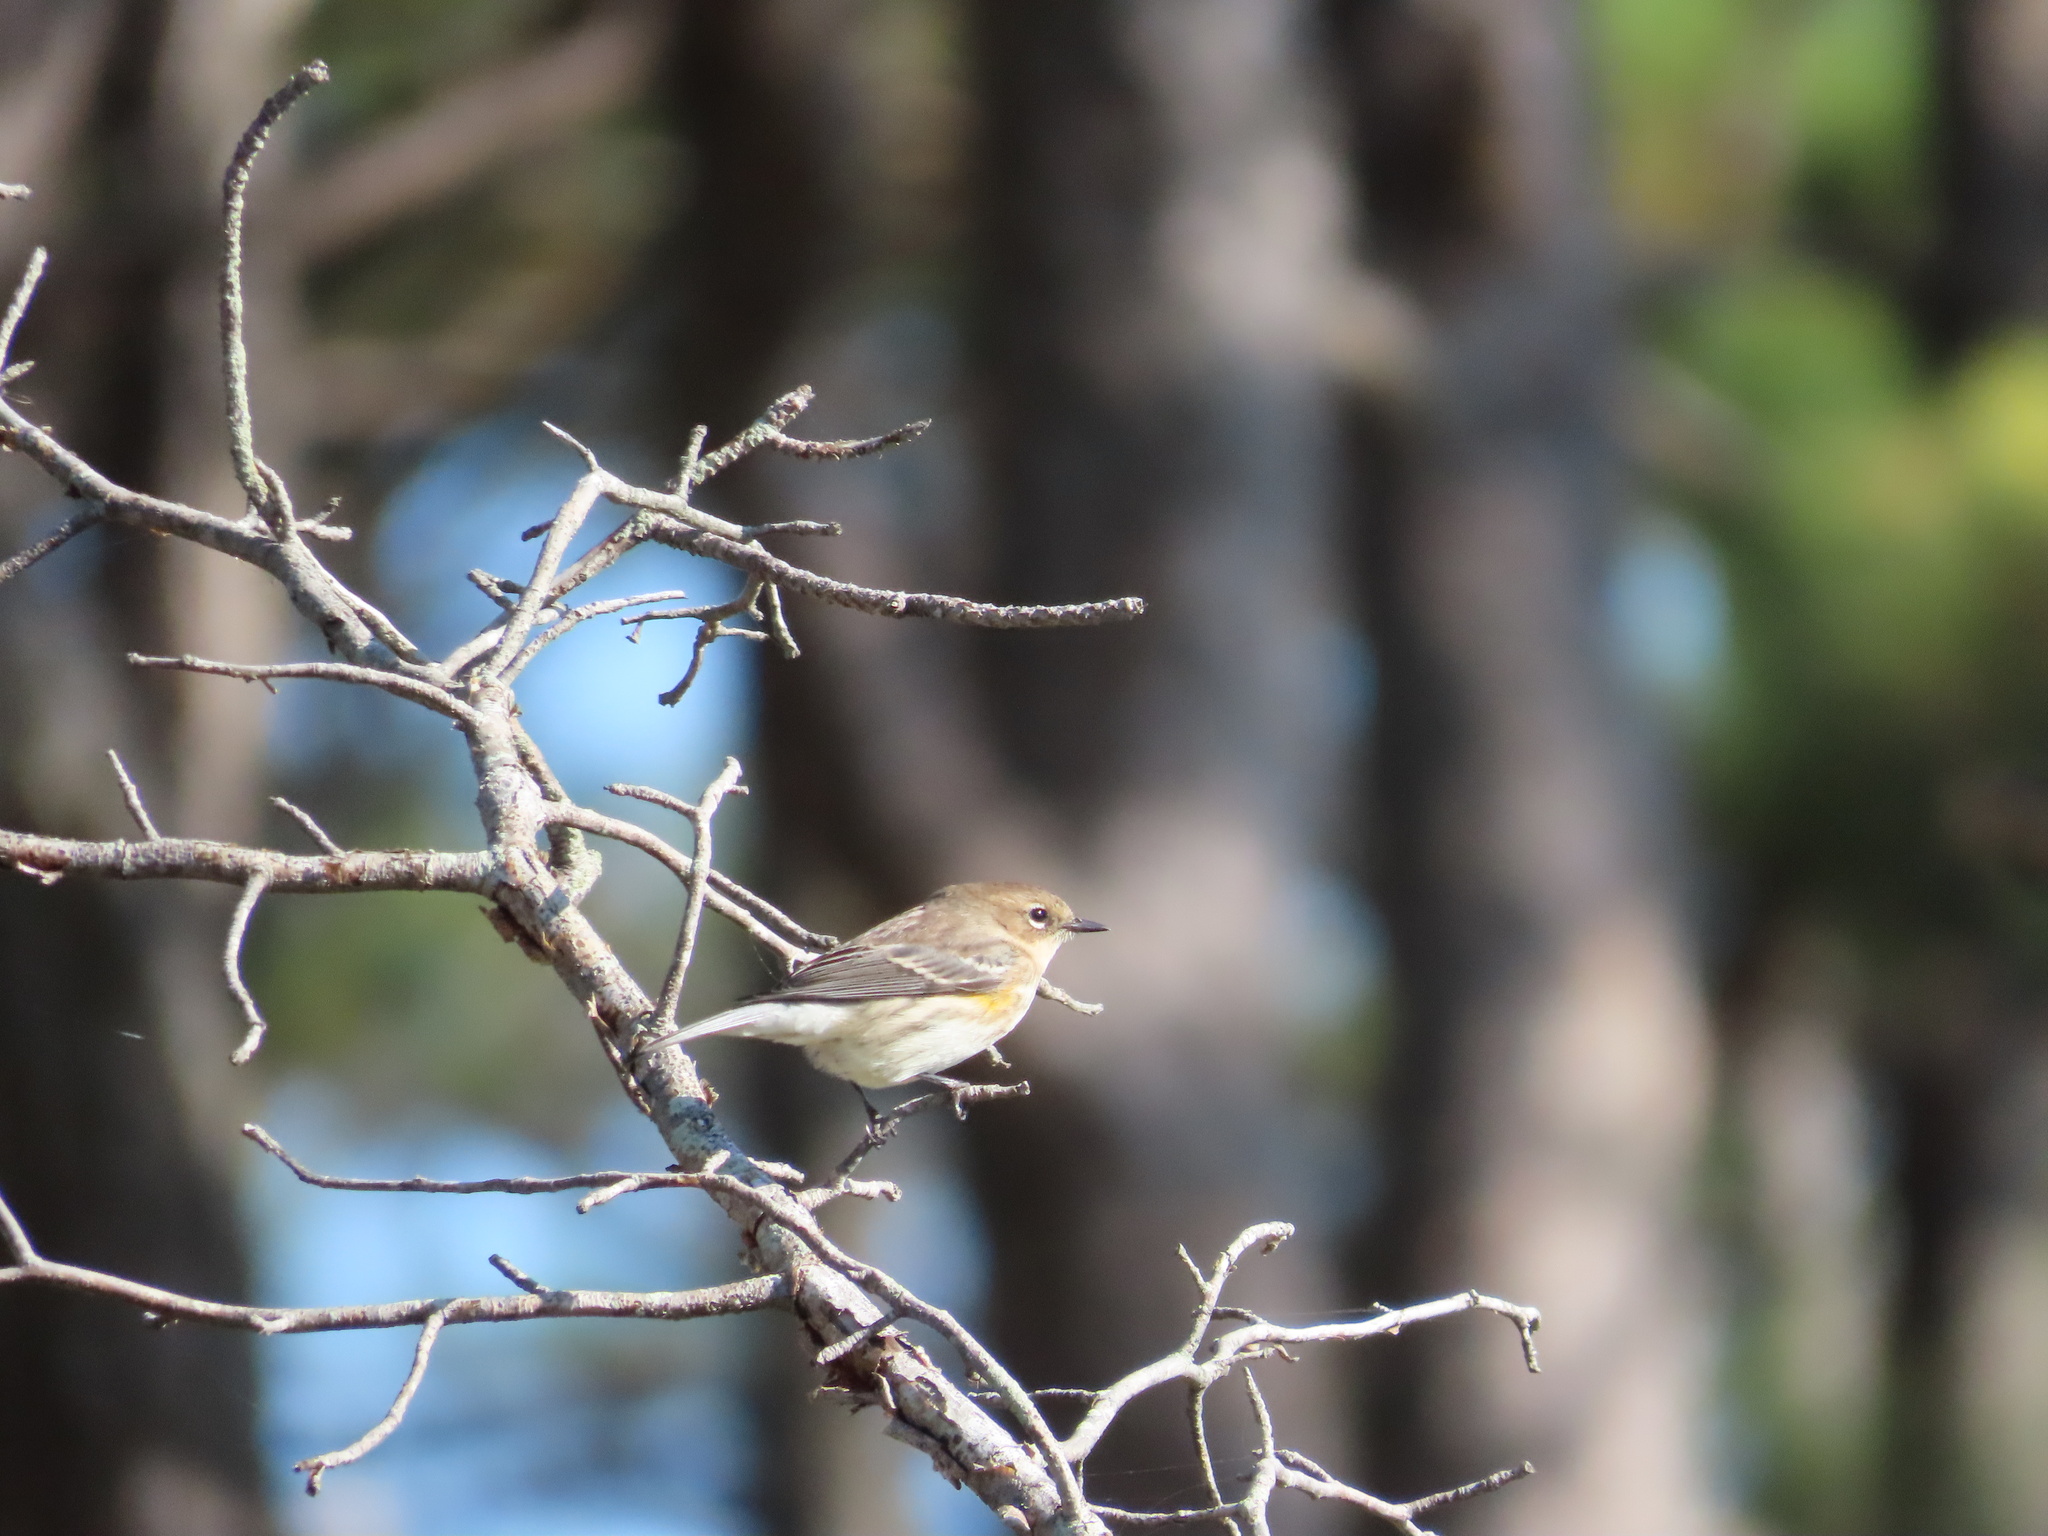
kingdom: Animalia
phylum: Chordata
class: Aves
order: Passeriformes
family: Parulidae
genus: Setophaga
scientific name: Setophaga coronata
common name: Myrtle warbler
